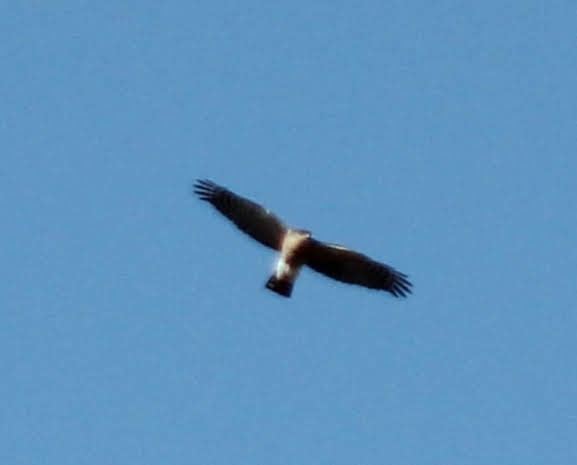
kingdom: Animalia
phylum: Chordata
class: Aves
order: Accipitriformes
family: Accipitridae
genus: Accipiter
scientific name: Accipiter striatus
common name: Sharp-shinned hawk
